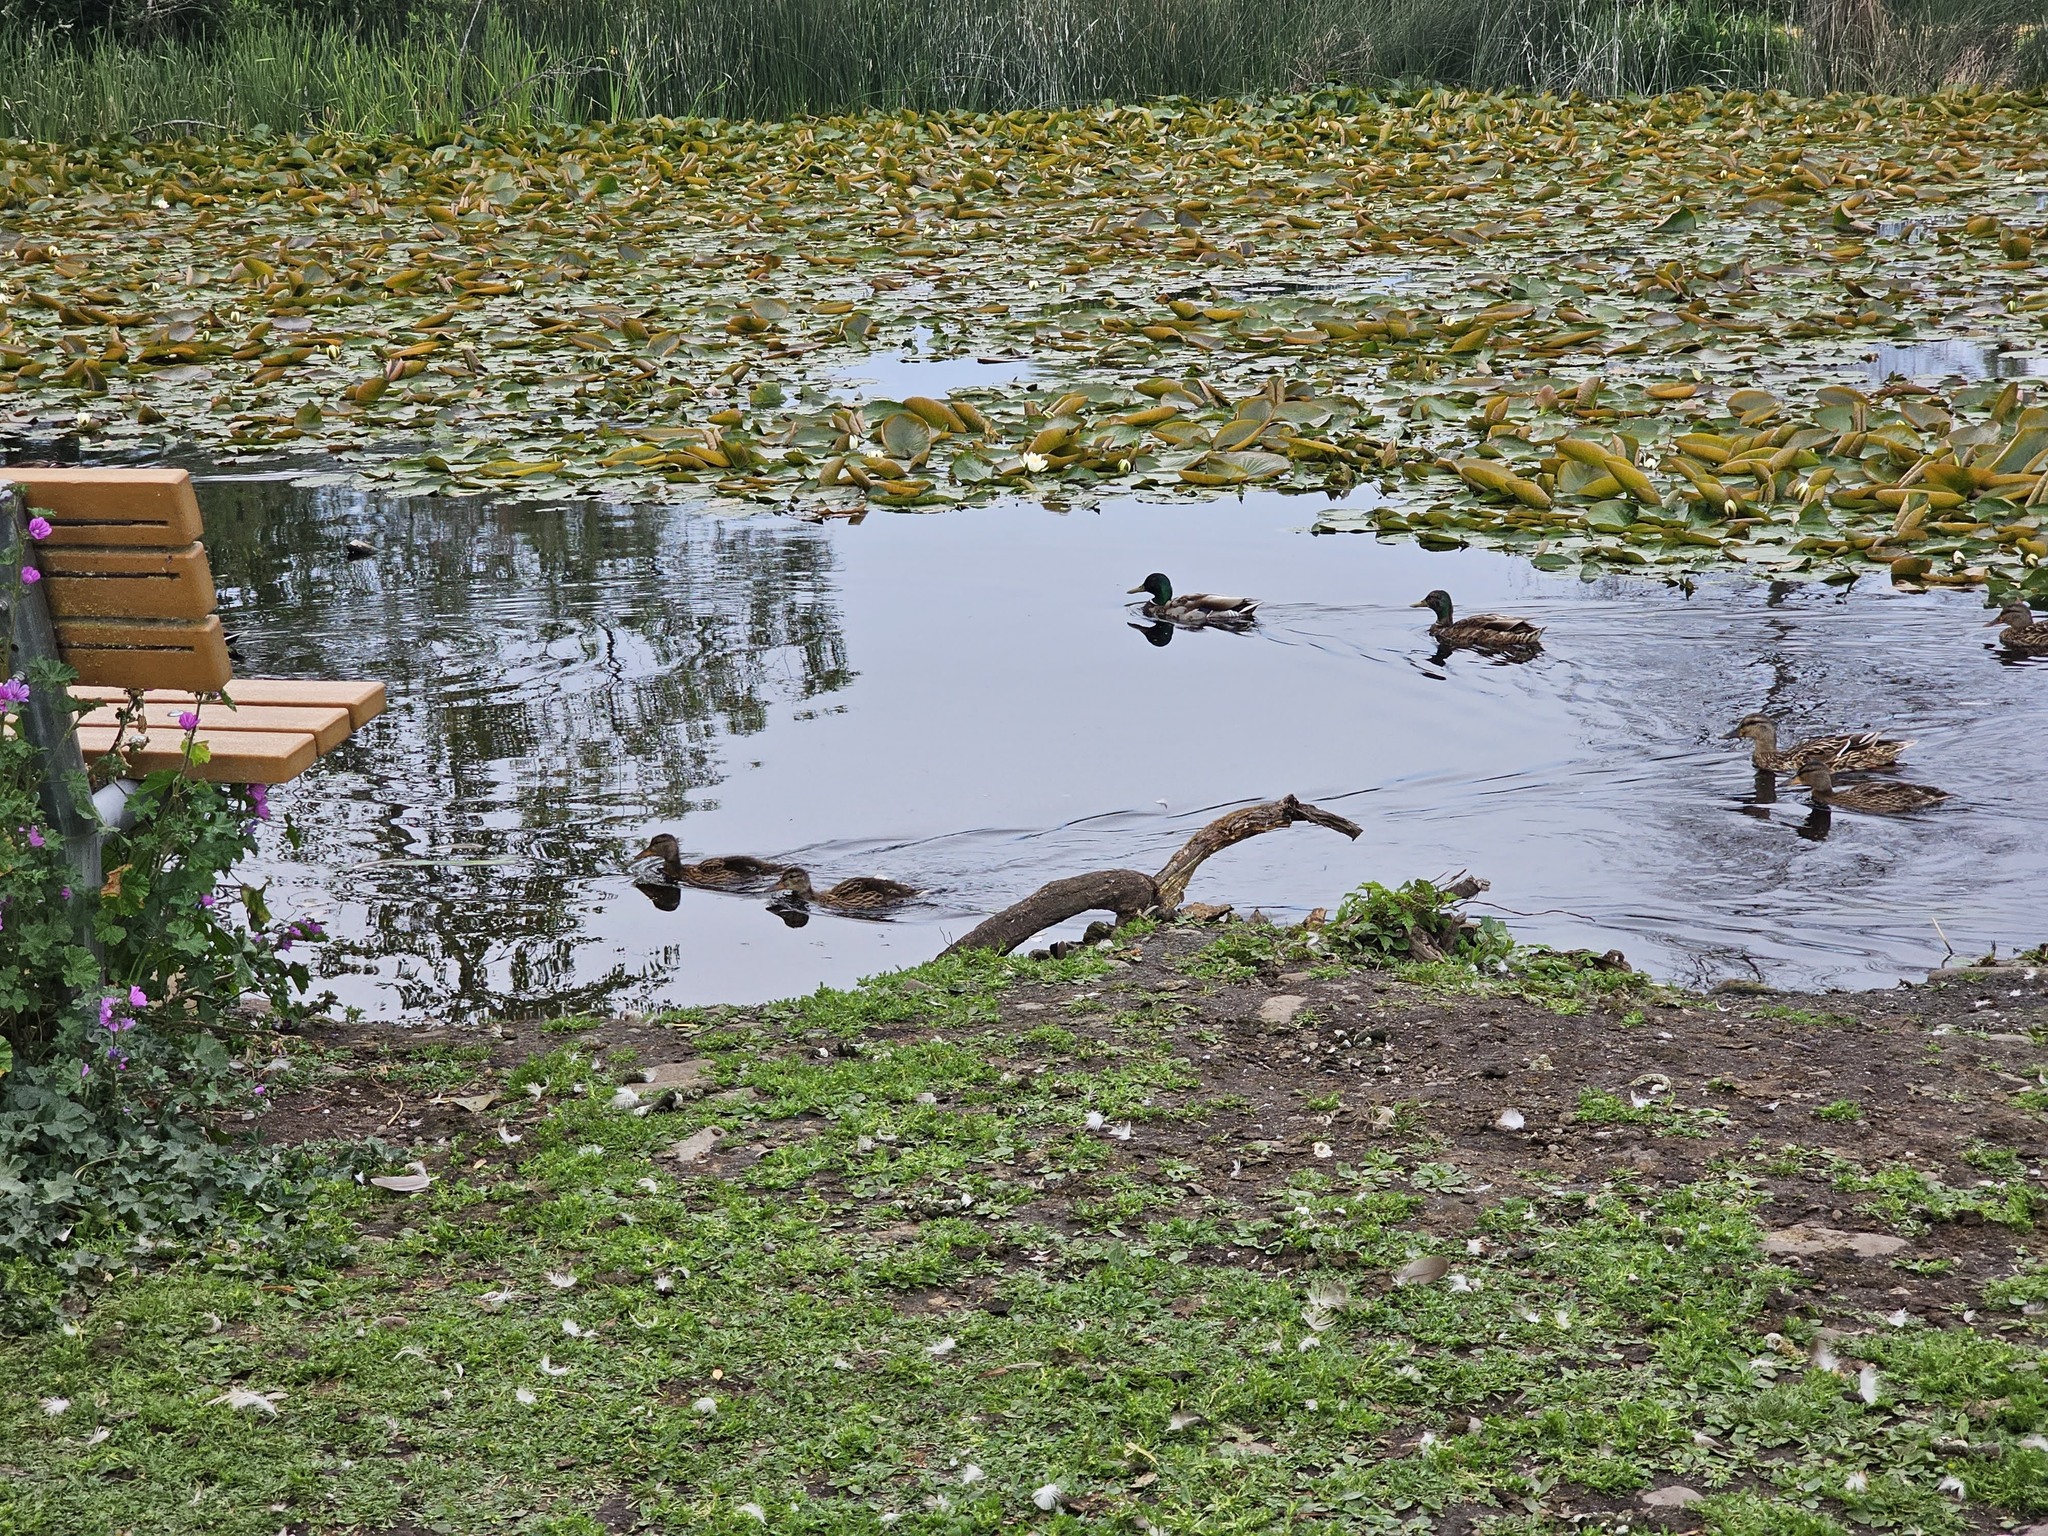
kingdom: Animalia
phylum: Chordata
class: Aves
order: Anseriformes
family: Anatidae
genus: Anas
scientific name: Anas platyrhynchos
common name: Mallard
